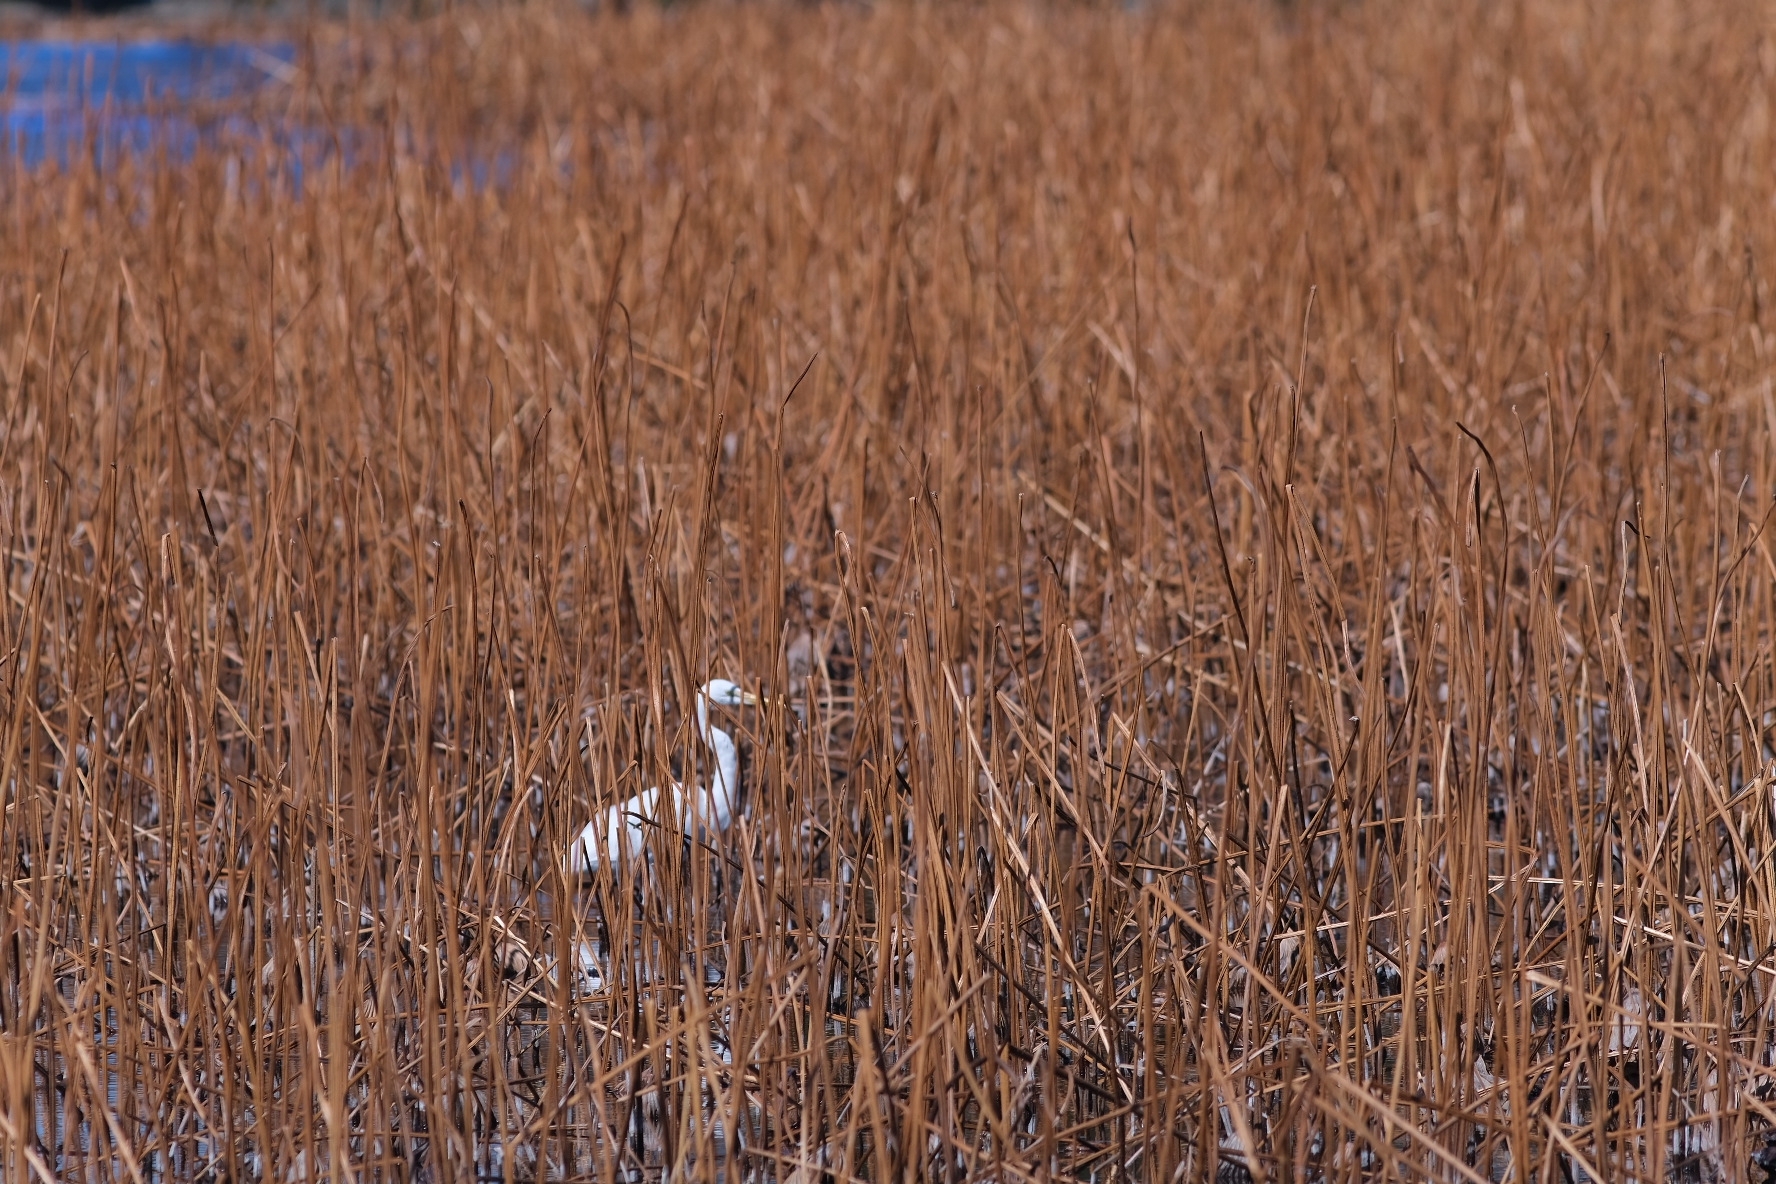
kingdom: Animalia
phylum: Chordata
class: Aves
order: Pelecaniformes
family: Ardeidae
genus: Ardea
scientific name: Ardea alba
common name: Great egret
